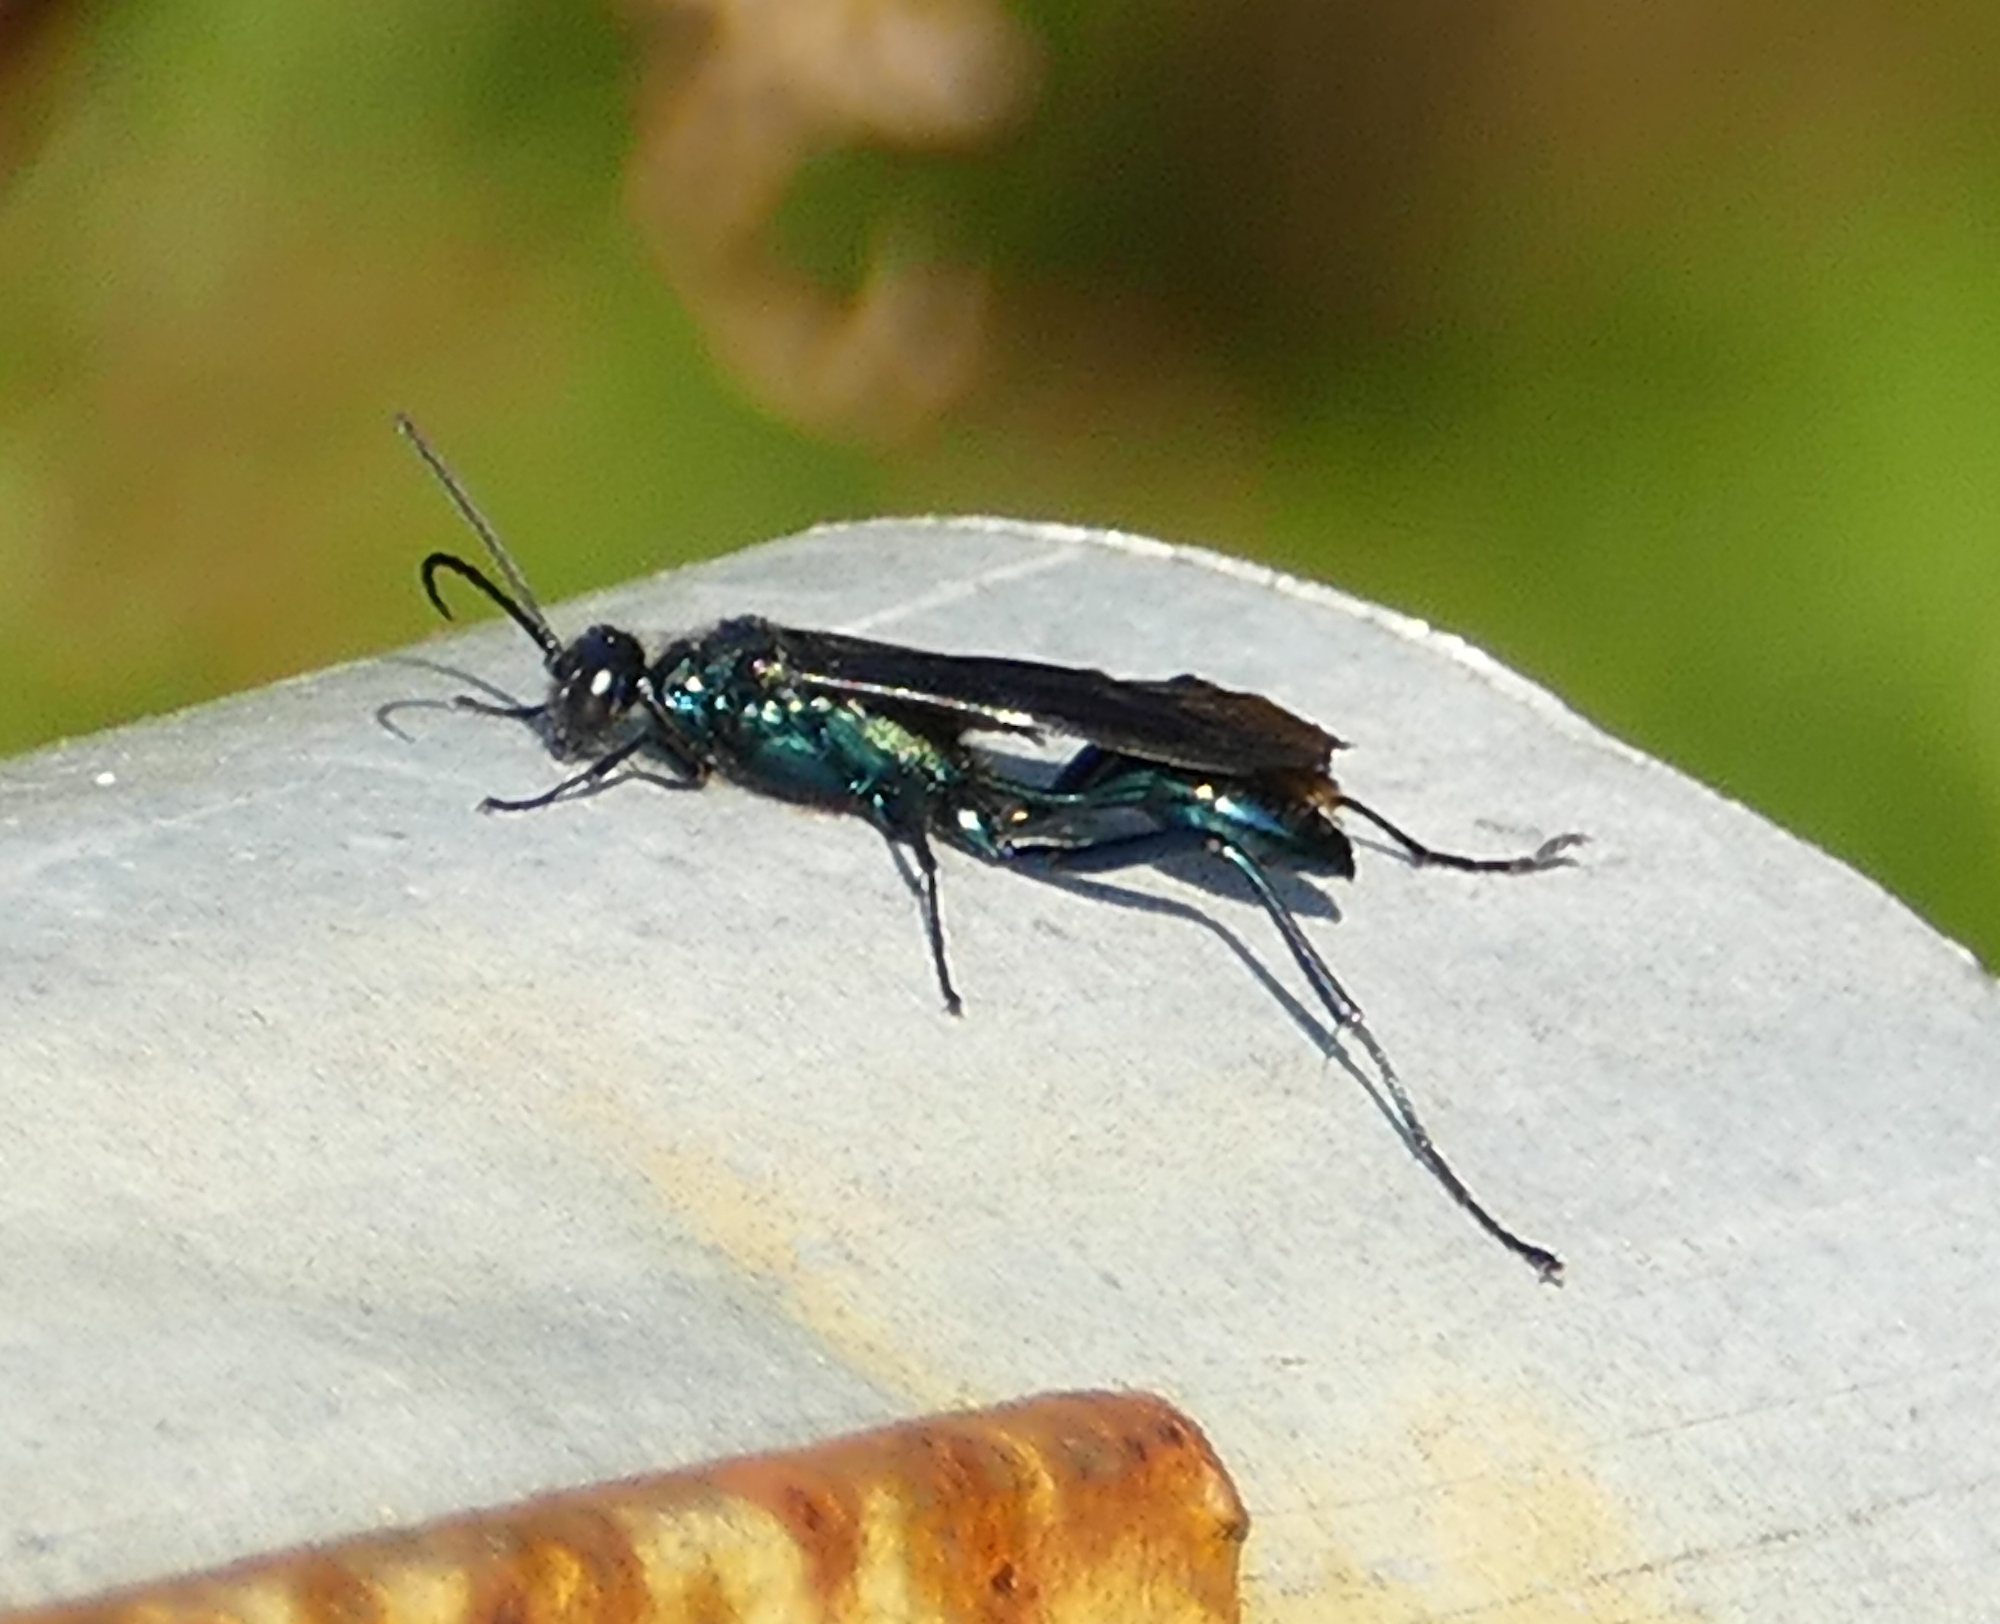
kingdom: Animalia
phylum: Arthropoda
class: Insecta
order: Hymenoptera
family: Sphecidae
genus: Chalybion
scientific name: Chalybion californicum
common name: Mud dauber
